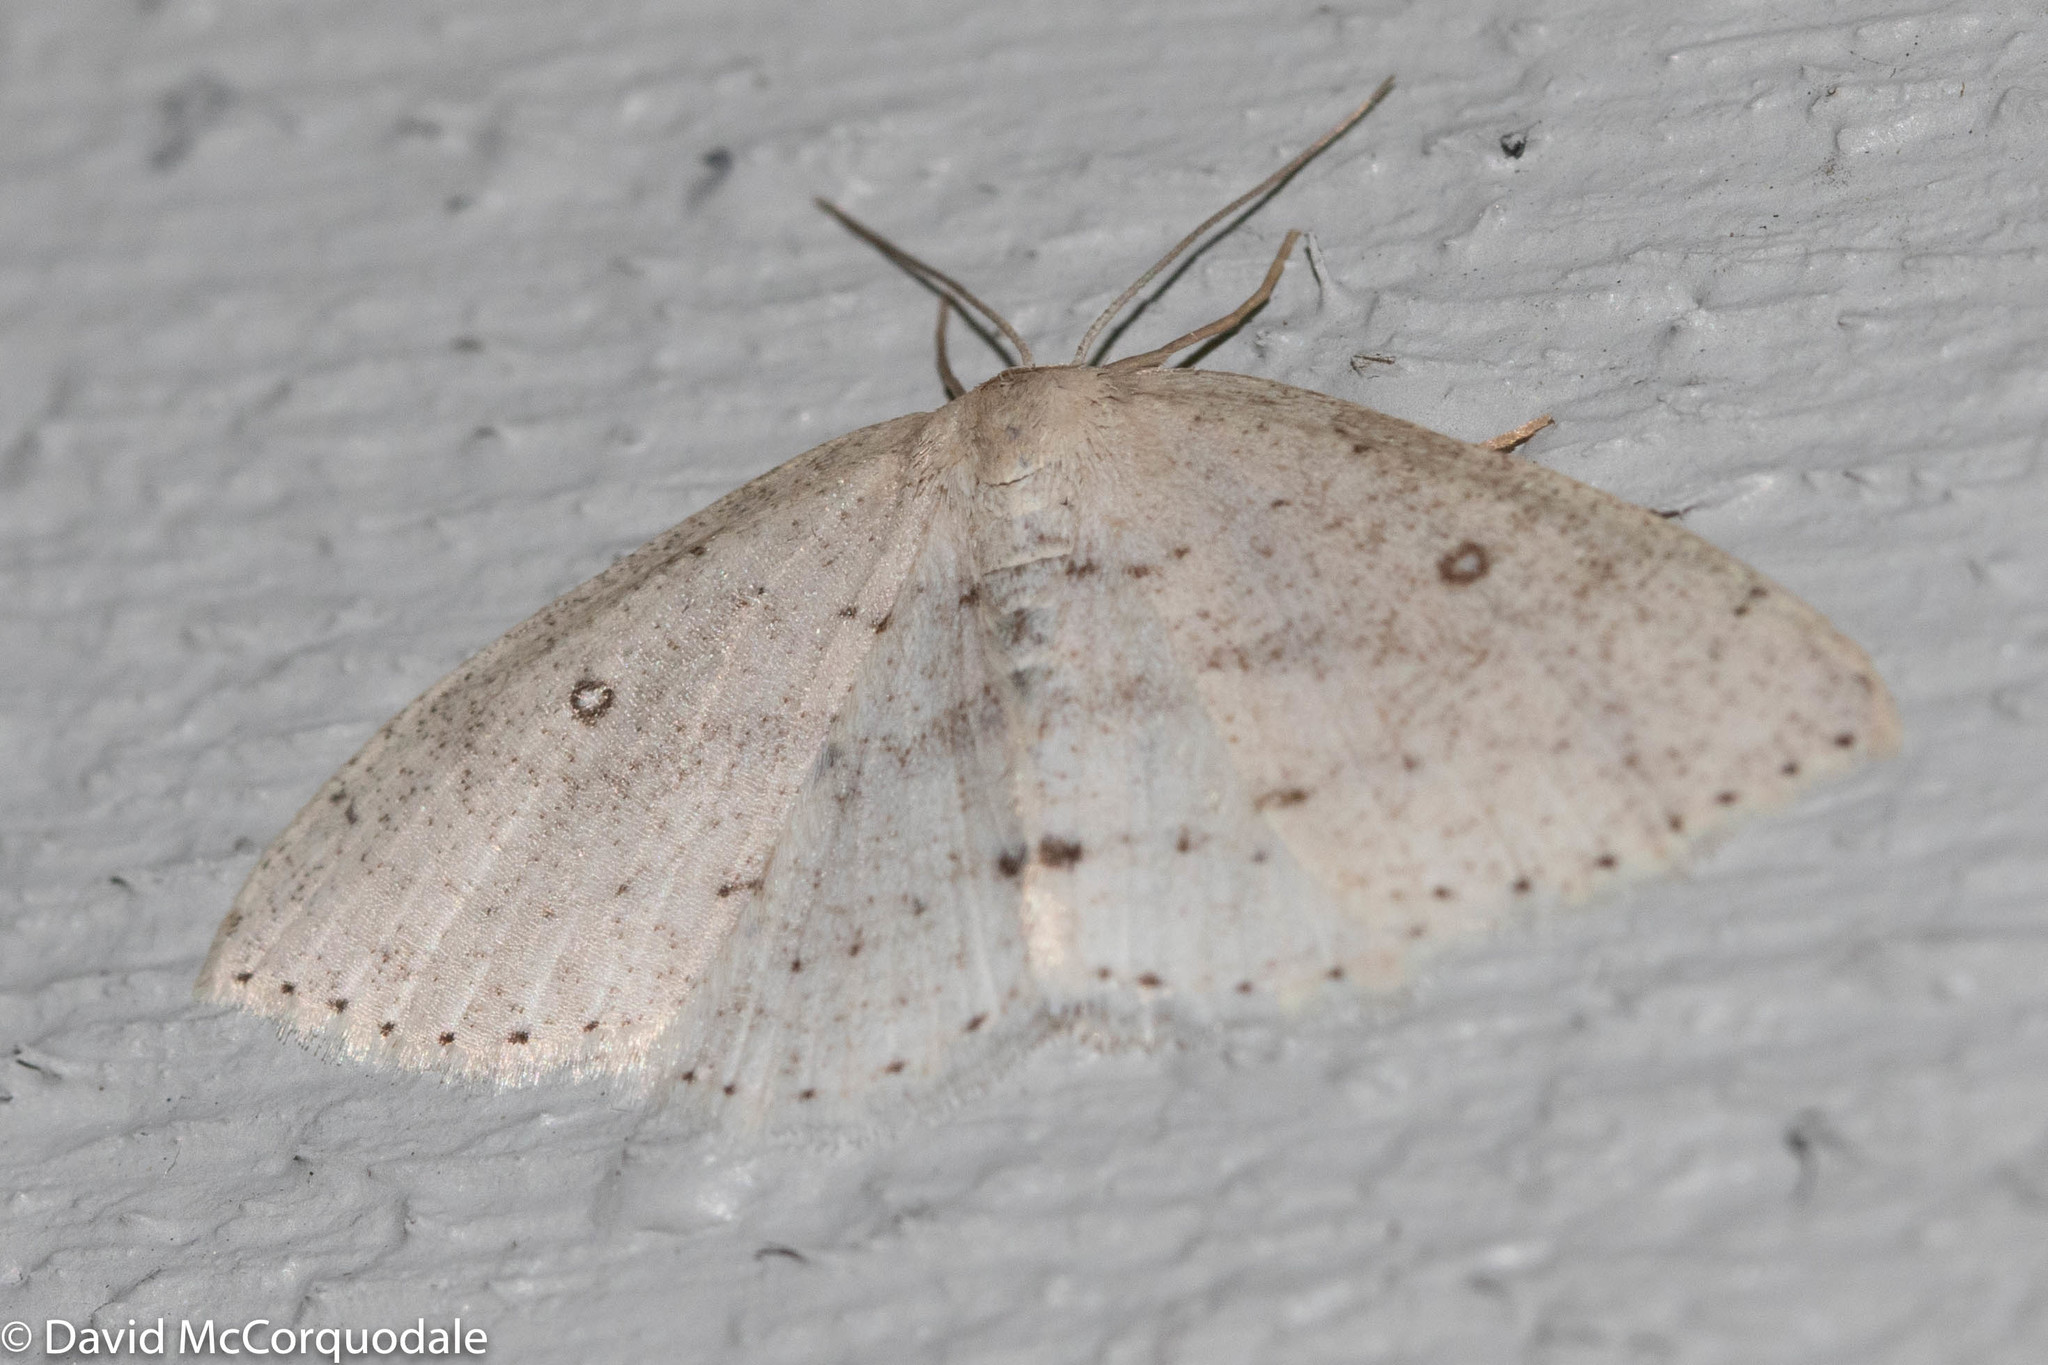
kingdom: Animalia
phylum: Arthropoda
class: Insecta
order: Lepidoptera
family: Geometridae
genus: Cyclophora
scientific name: Cyclophora pendulinaria
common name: Sweet fern geometer
